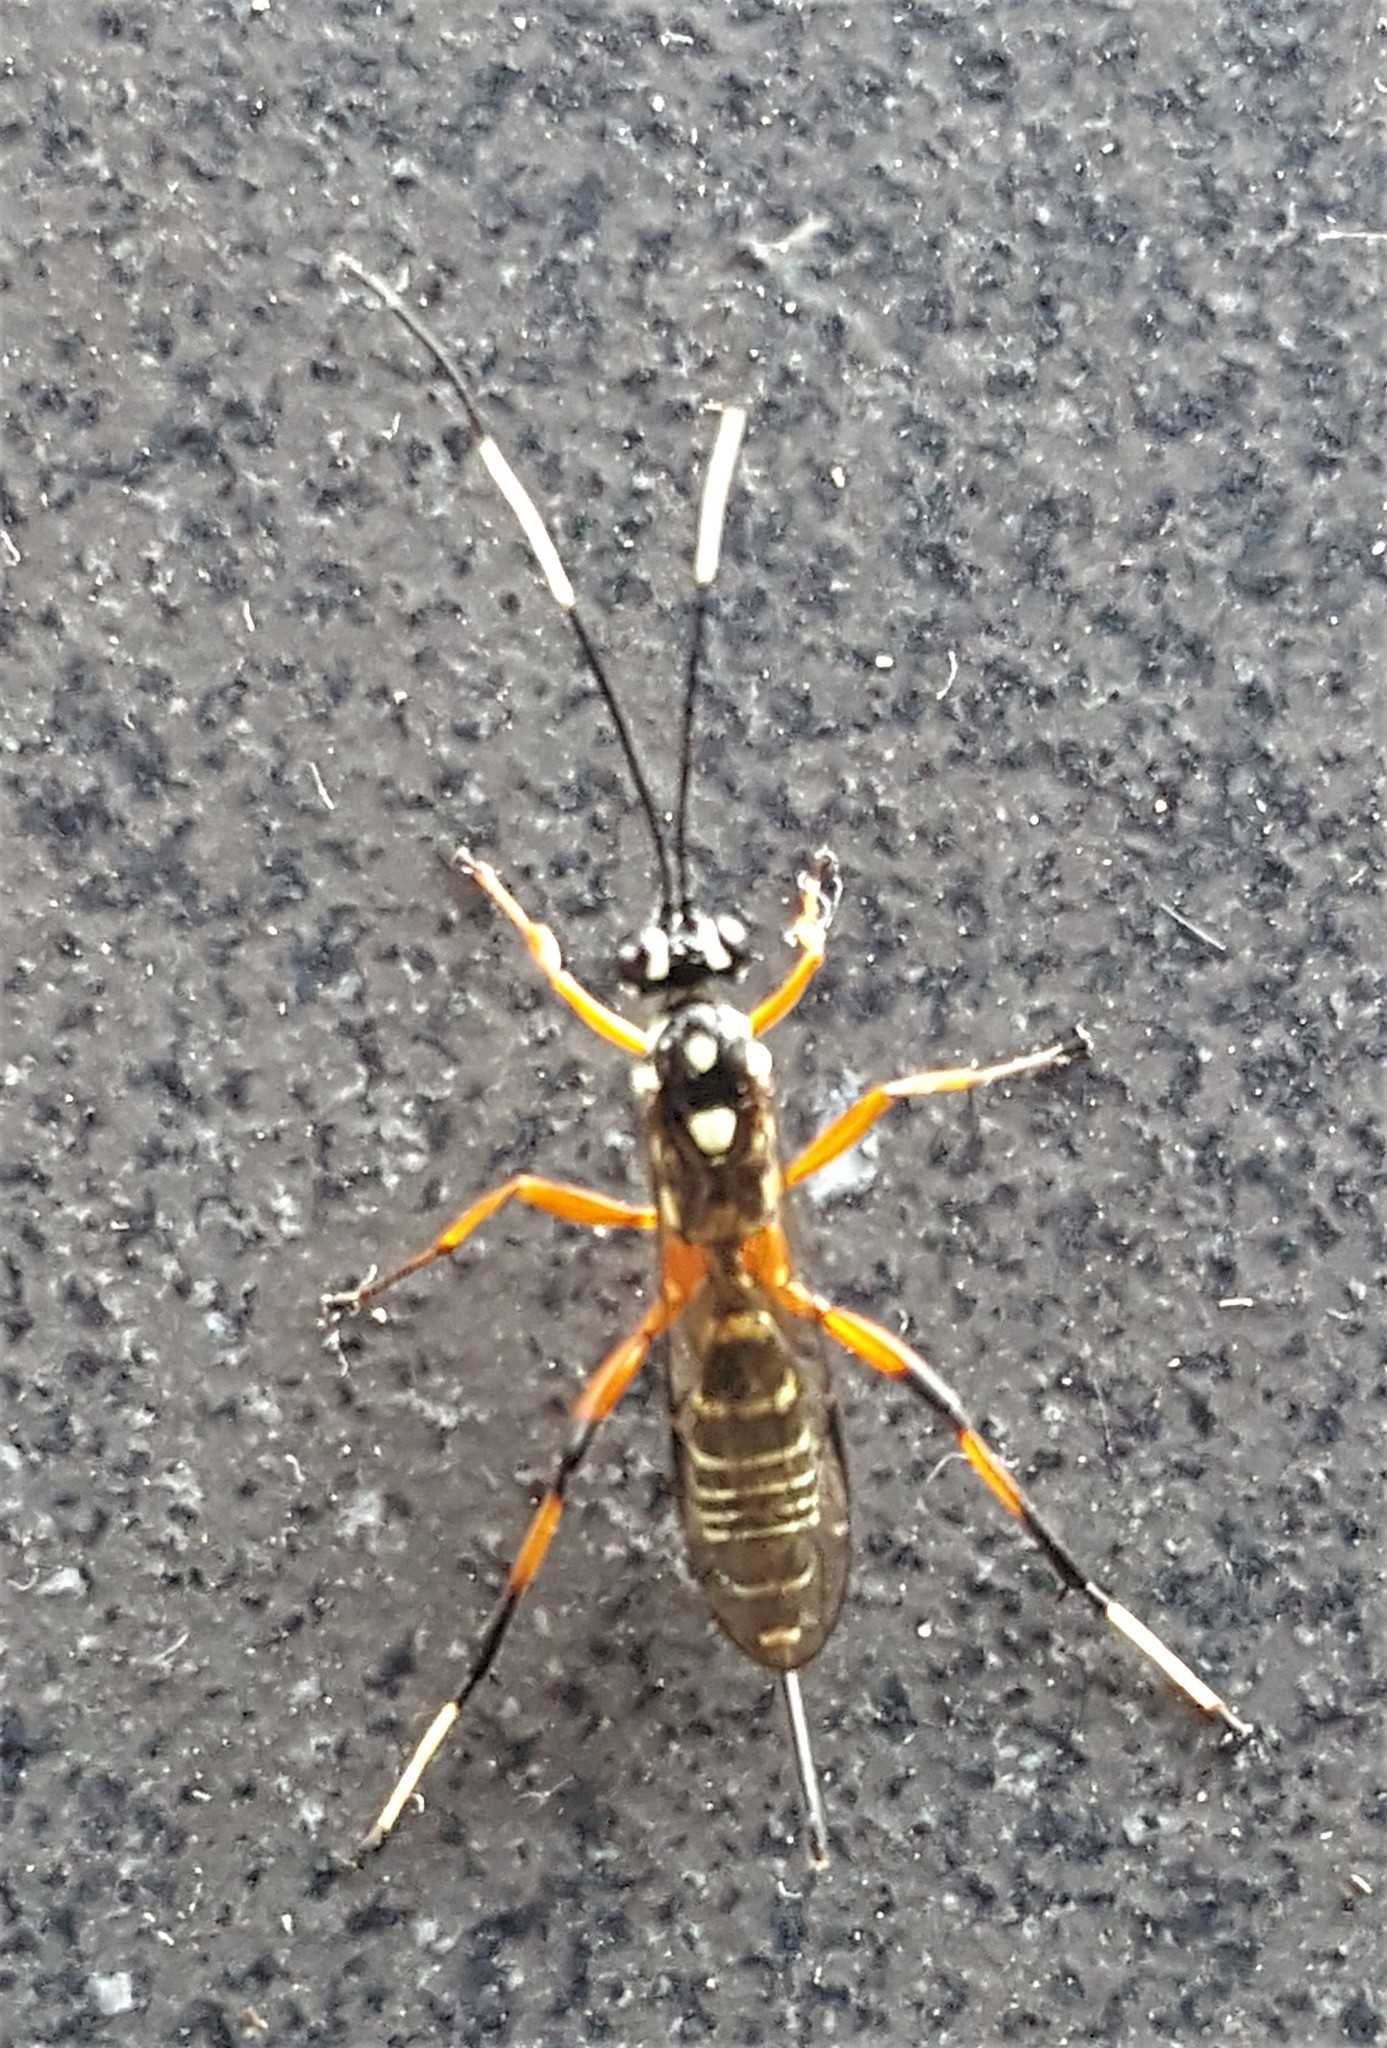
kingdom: Animalia
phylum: Arthropoda
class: Insecta
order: Hymenoptera
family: Ichneumonidae
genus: Xanthocryptus
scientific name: Xanthocryptus novozealandicus
